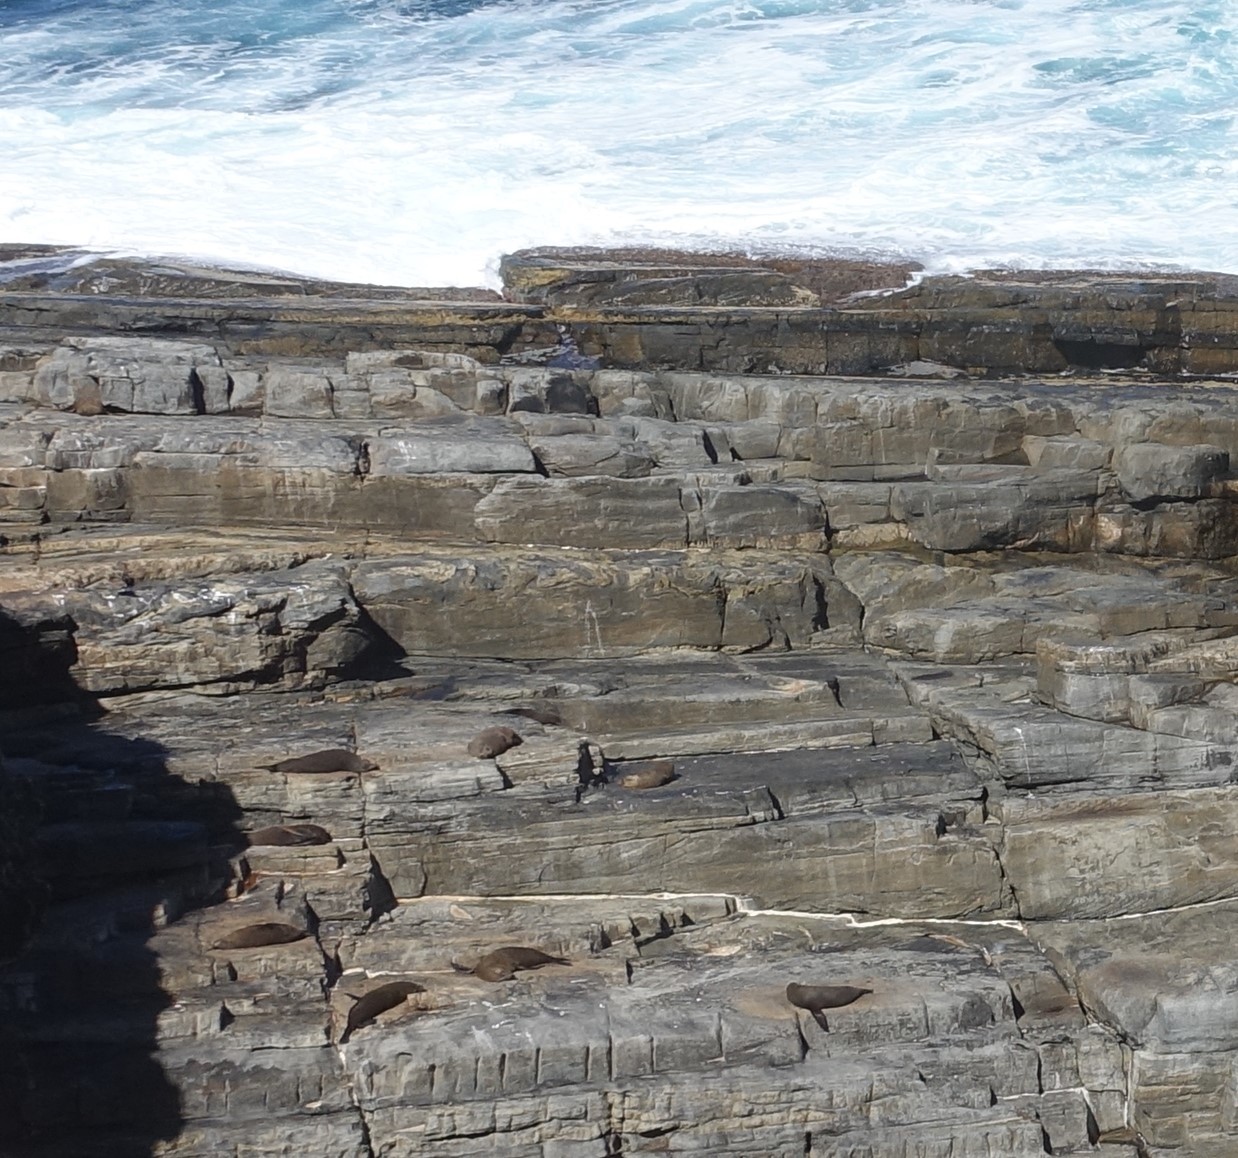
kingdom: Animalia
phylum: Chordata
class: Mammalia
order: Carnivora
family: Otariidae
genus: Arctocephalus
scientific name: Arctocephalus forsteri
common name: New zealand fur seal
